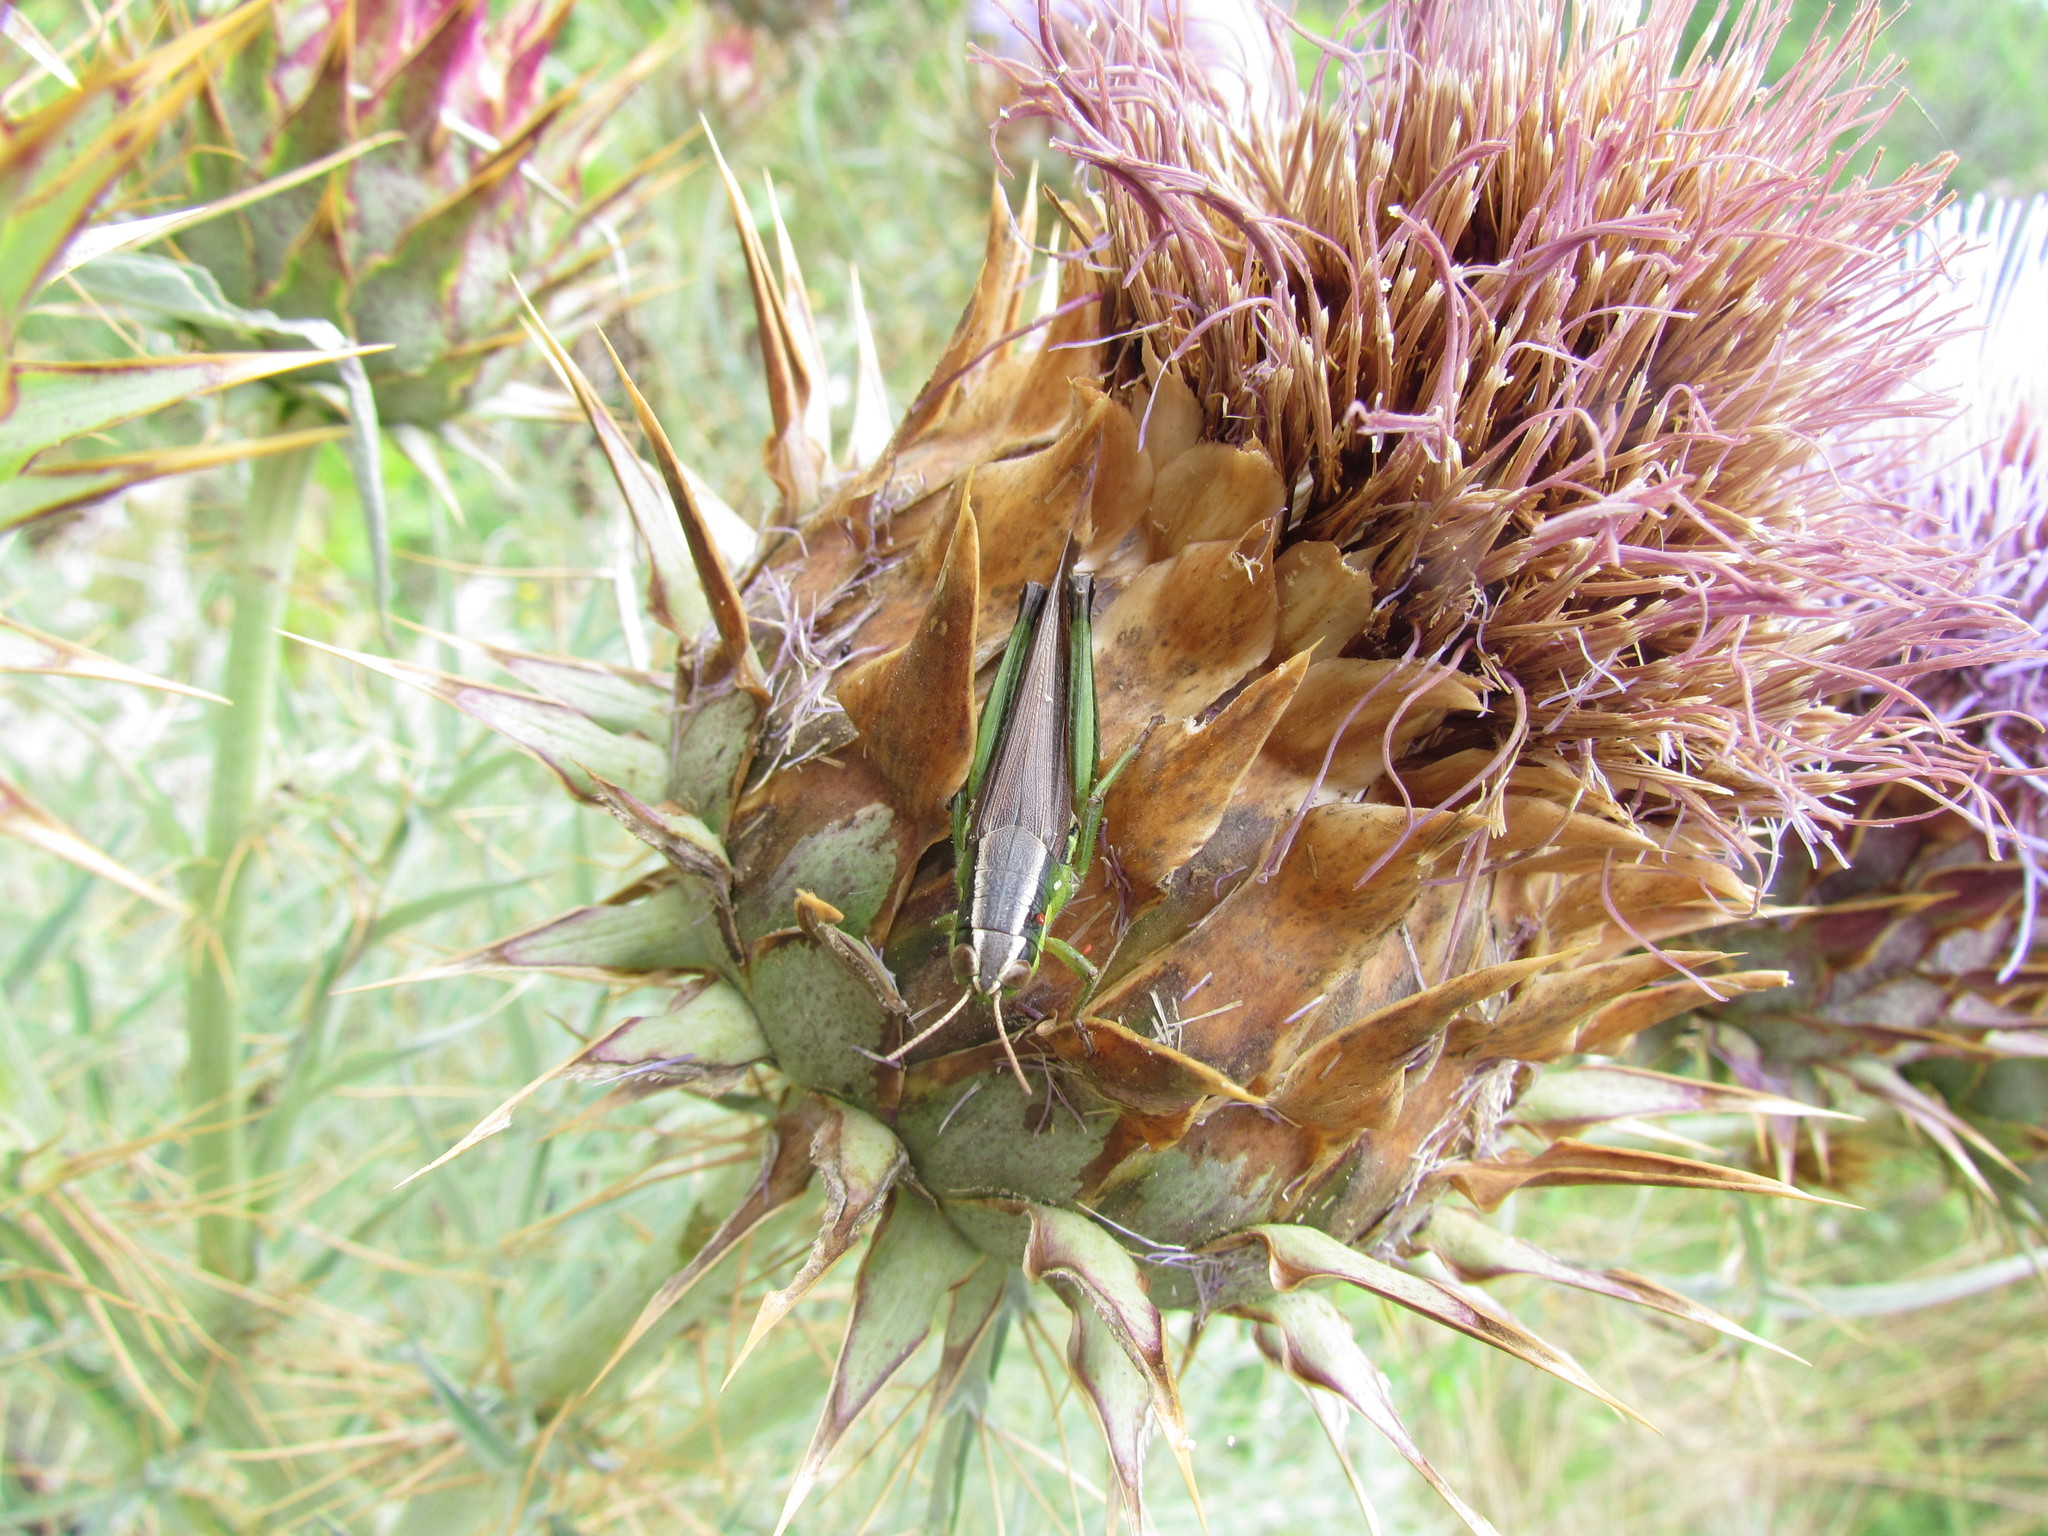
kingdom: Animalia
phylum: Arthropoda
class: Insecta
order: Orthoptera
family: Acrididae
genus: Scotussa
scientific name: Scotussa cliens
